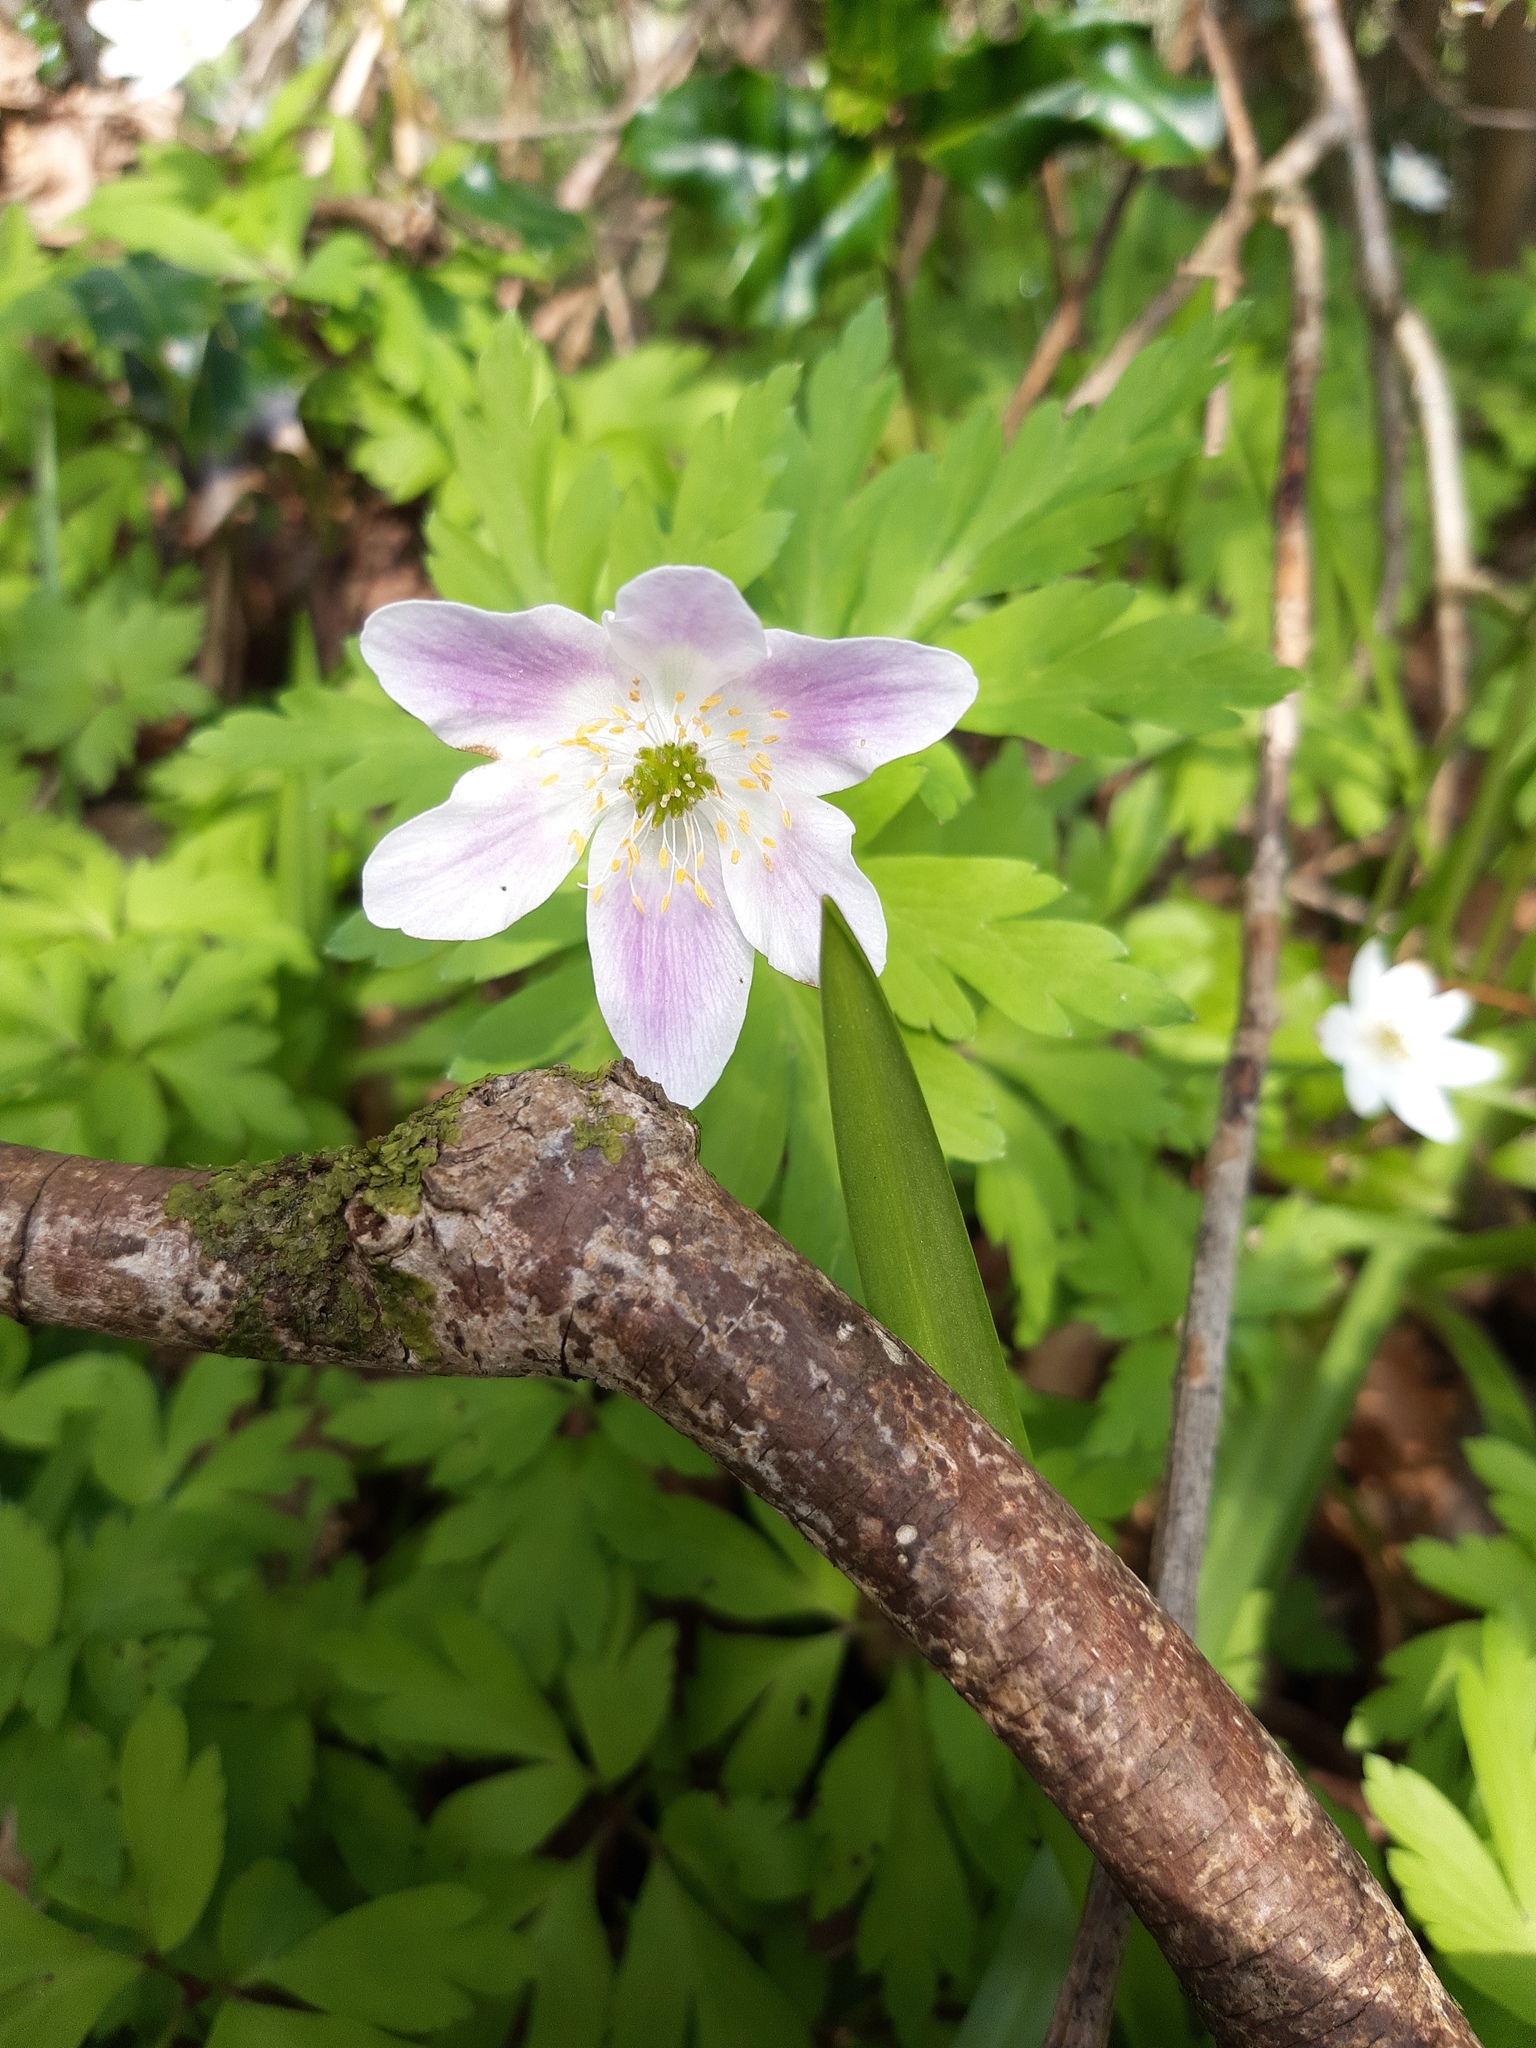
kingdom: Plantae
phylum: Tracheophyta
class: Magnoliopsida
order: Ranunculales
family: Ranunculaceae
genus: Anemone
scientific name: Anemone nemorosa
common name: Wood anemone
